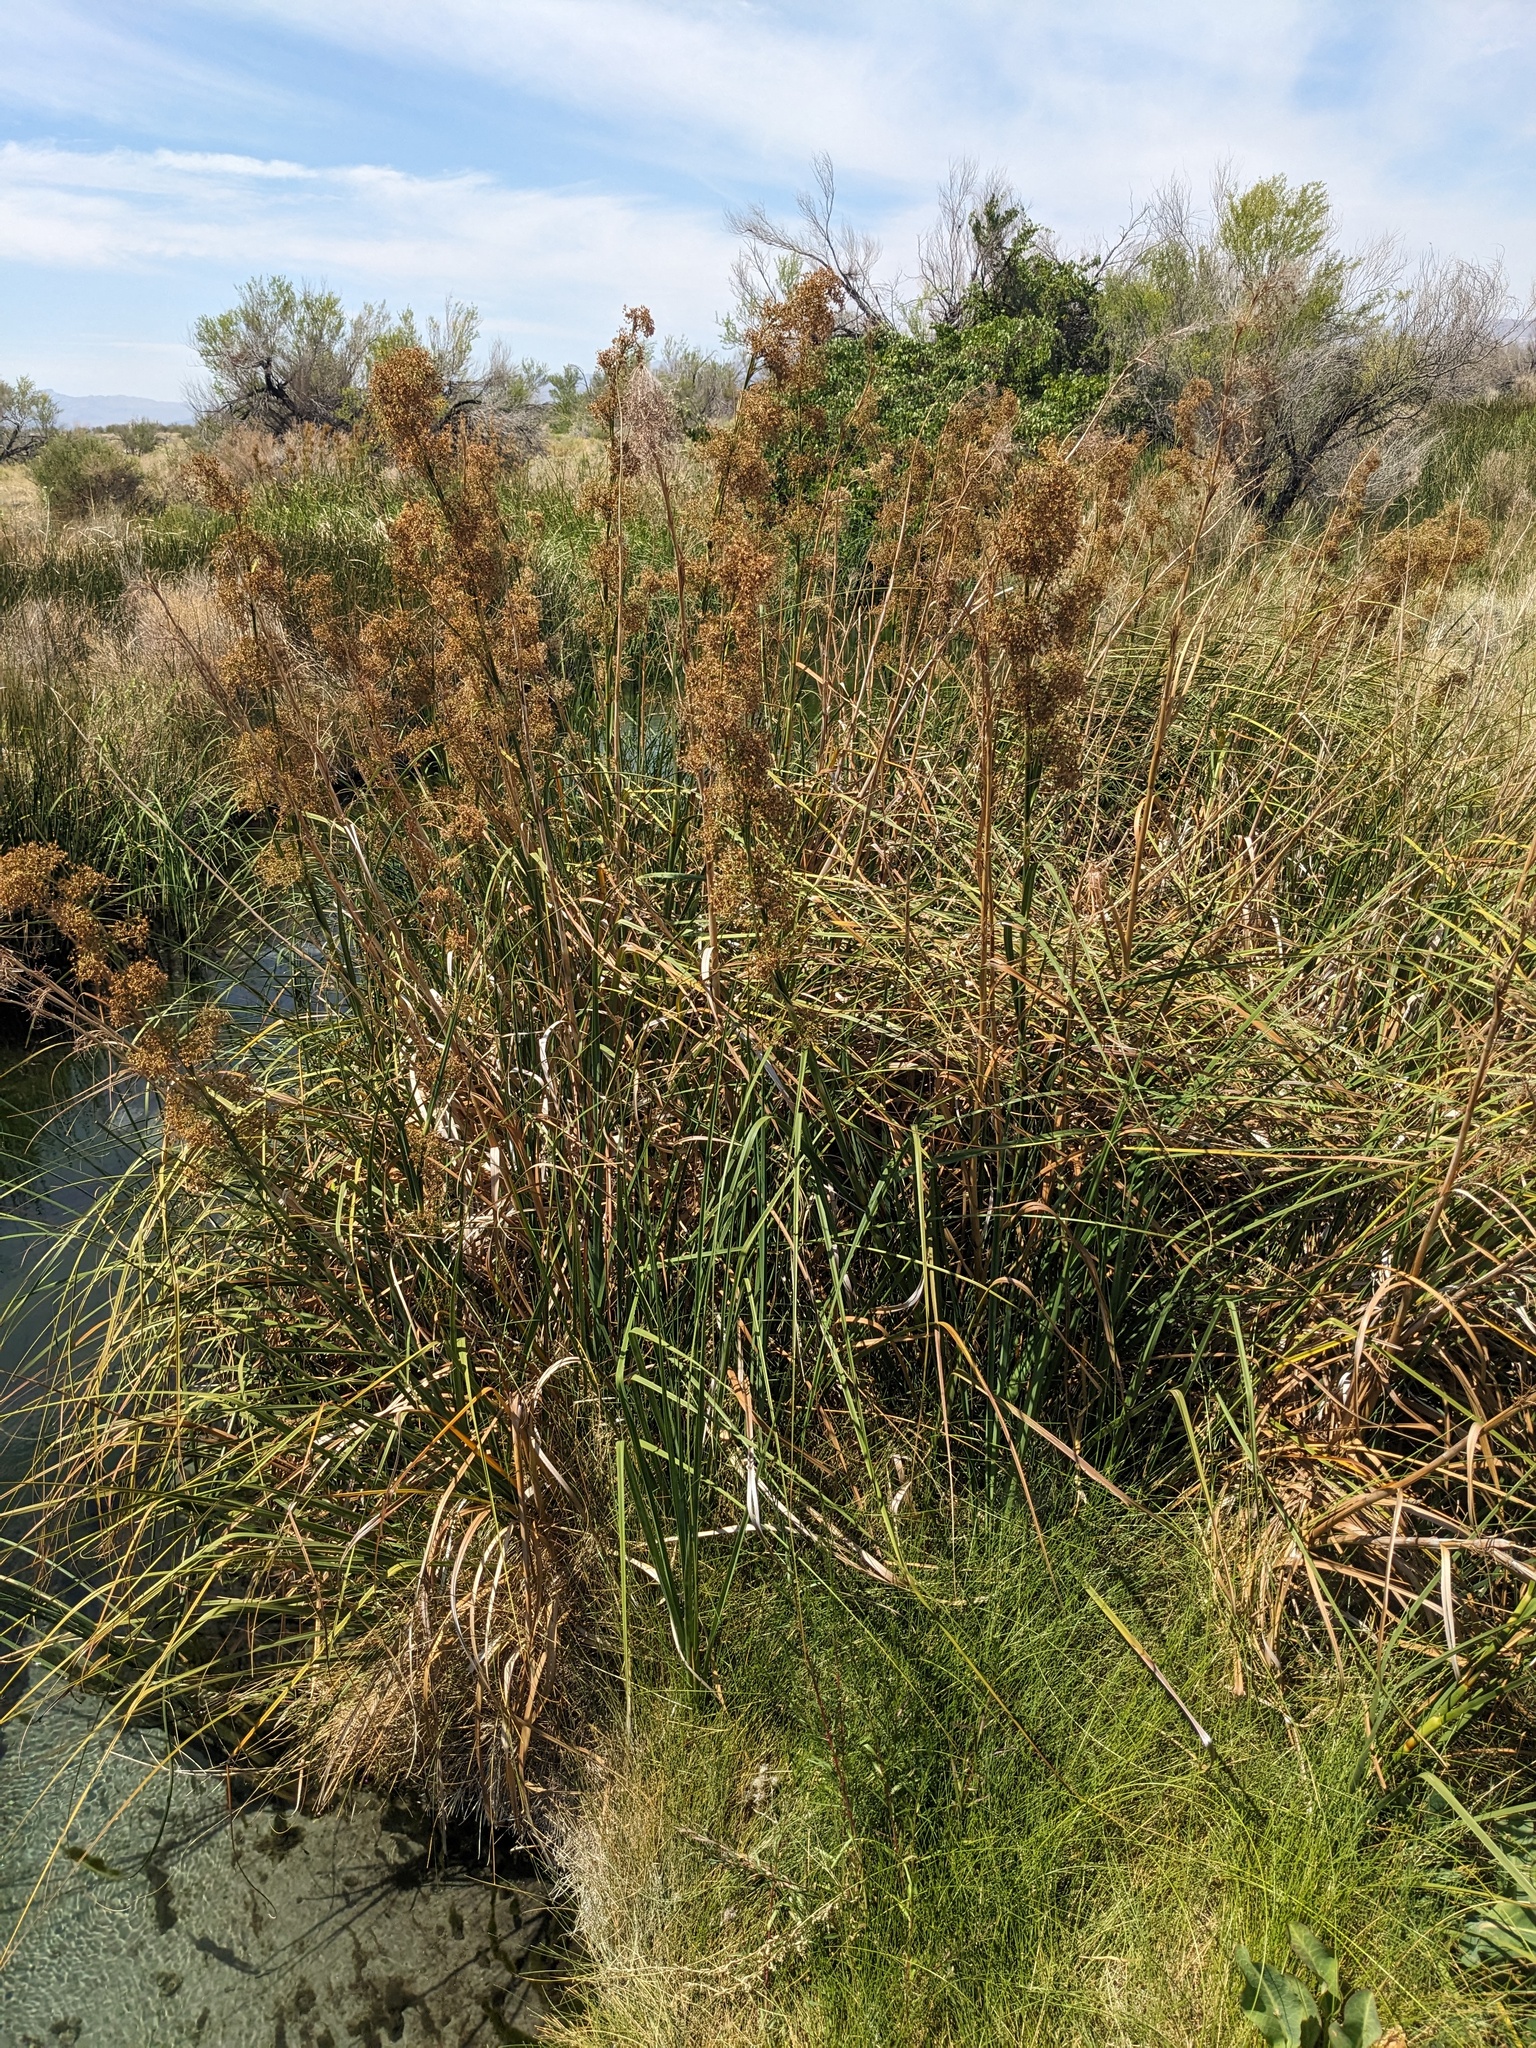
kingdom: Plantae
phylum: Tracheophyta
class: Liliopsida
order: Poales
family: Cyperaceae
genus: Cladium
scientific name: Cladium mariscus
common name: Great fen-sedge
